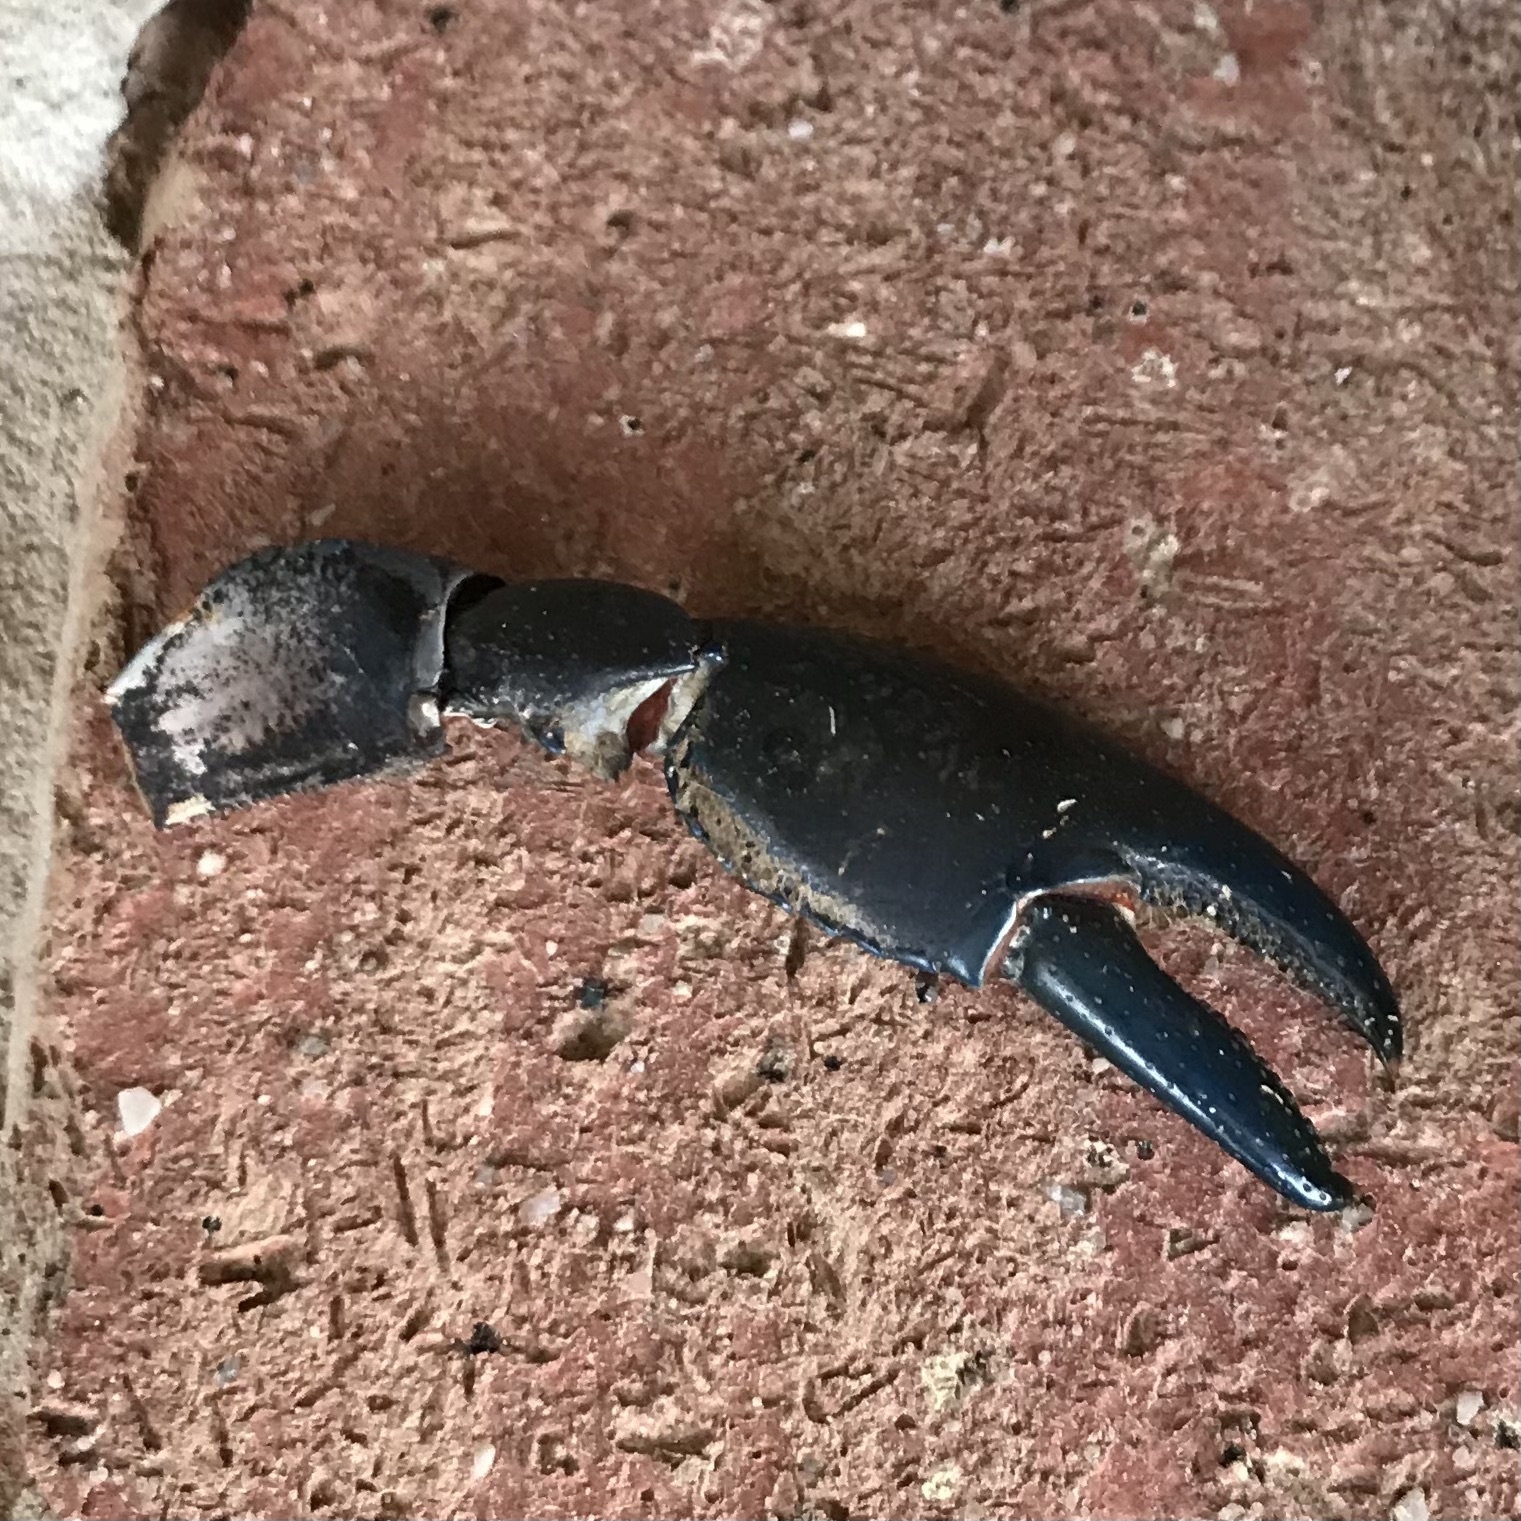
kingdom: Animalia
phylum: Arthropoda
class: Malacostraca
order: Decapoda
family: Parastacidae
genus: Cherax
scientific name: Cherax destructor
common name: Yabby
